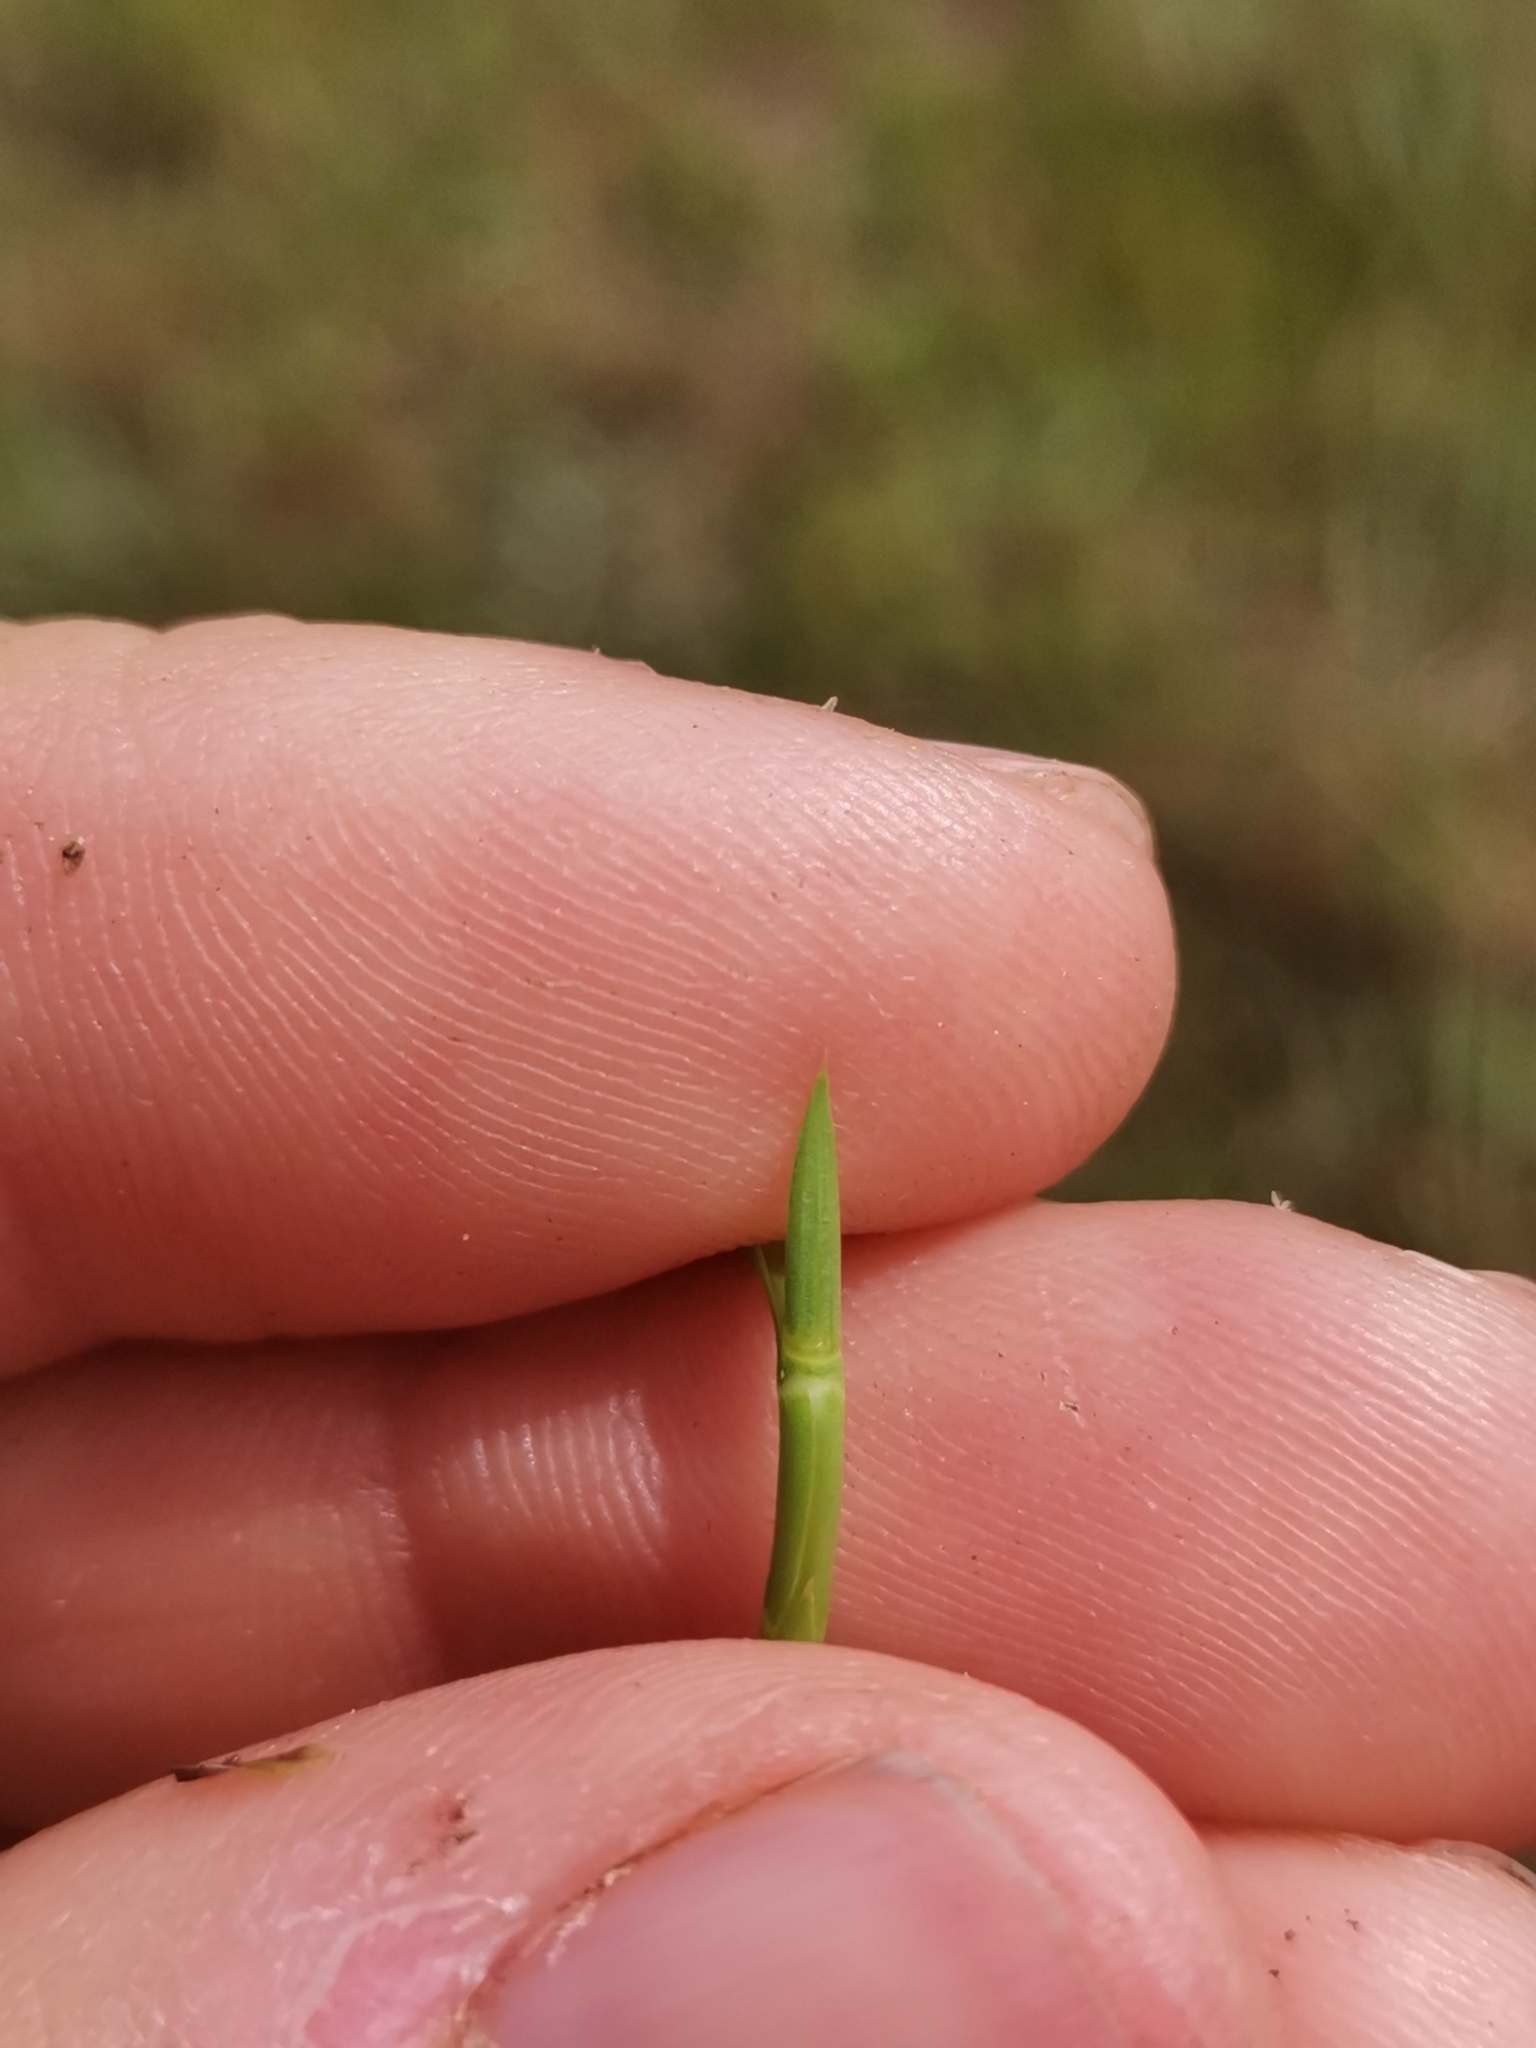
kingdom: Plantae
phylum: Tracheophyta
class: Liliopsida
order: Poales
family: Poaceae
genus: Parapholis
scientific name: Parapholis cylindrica
